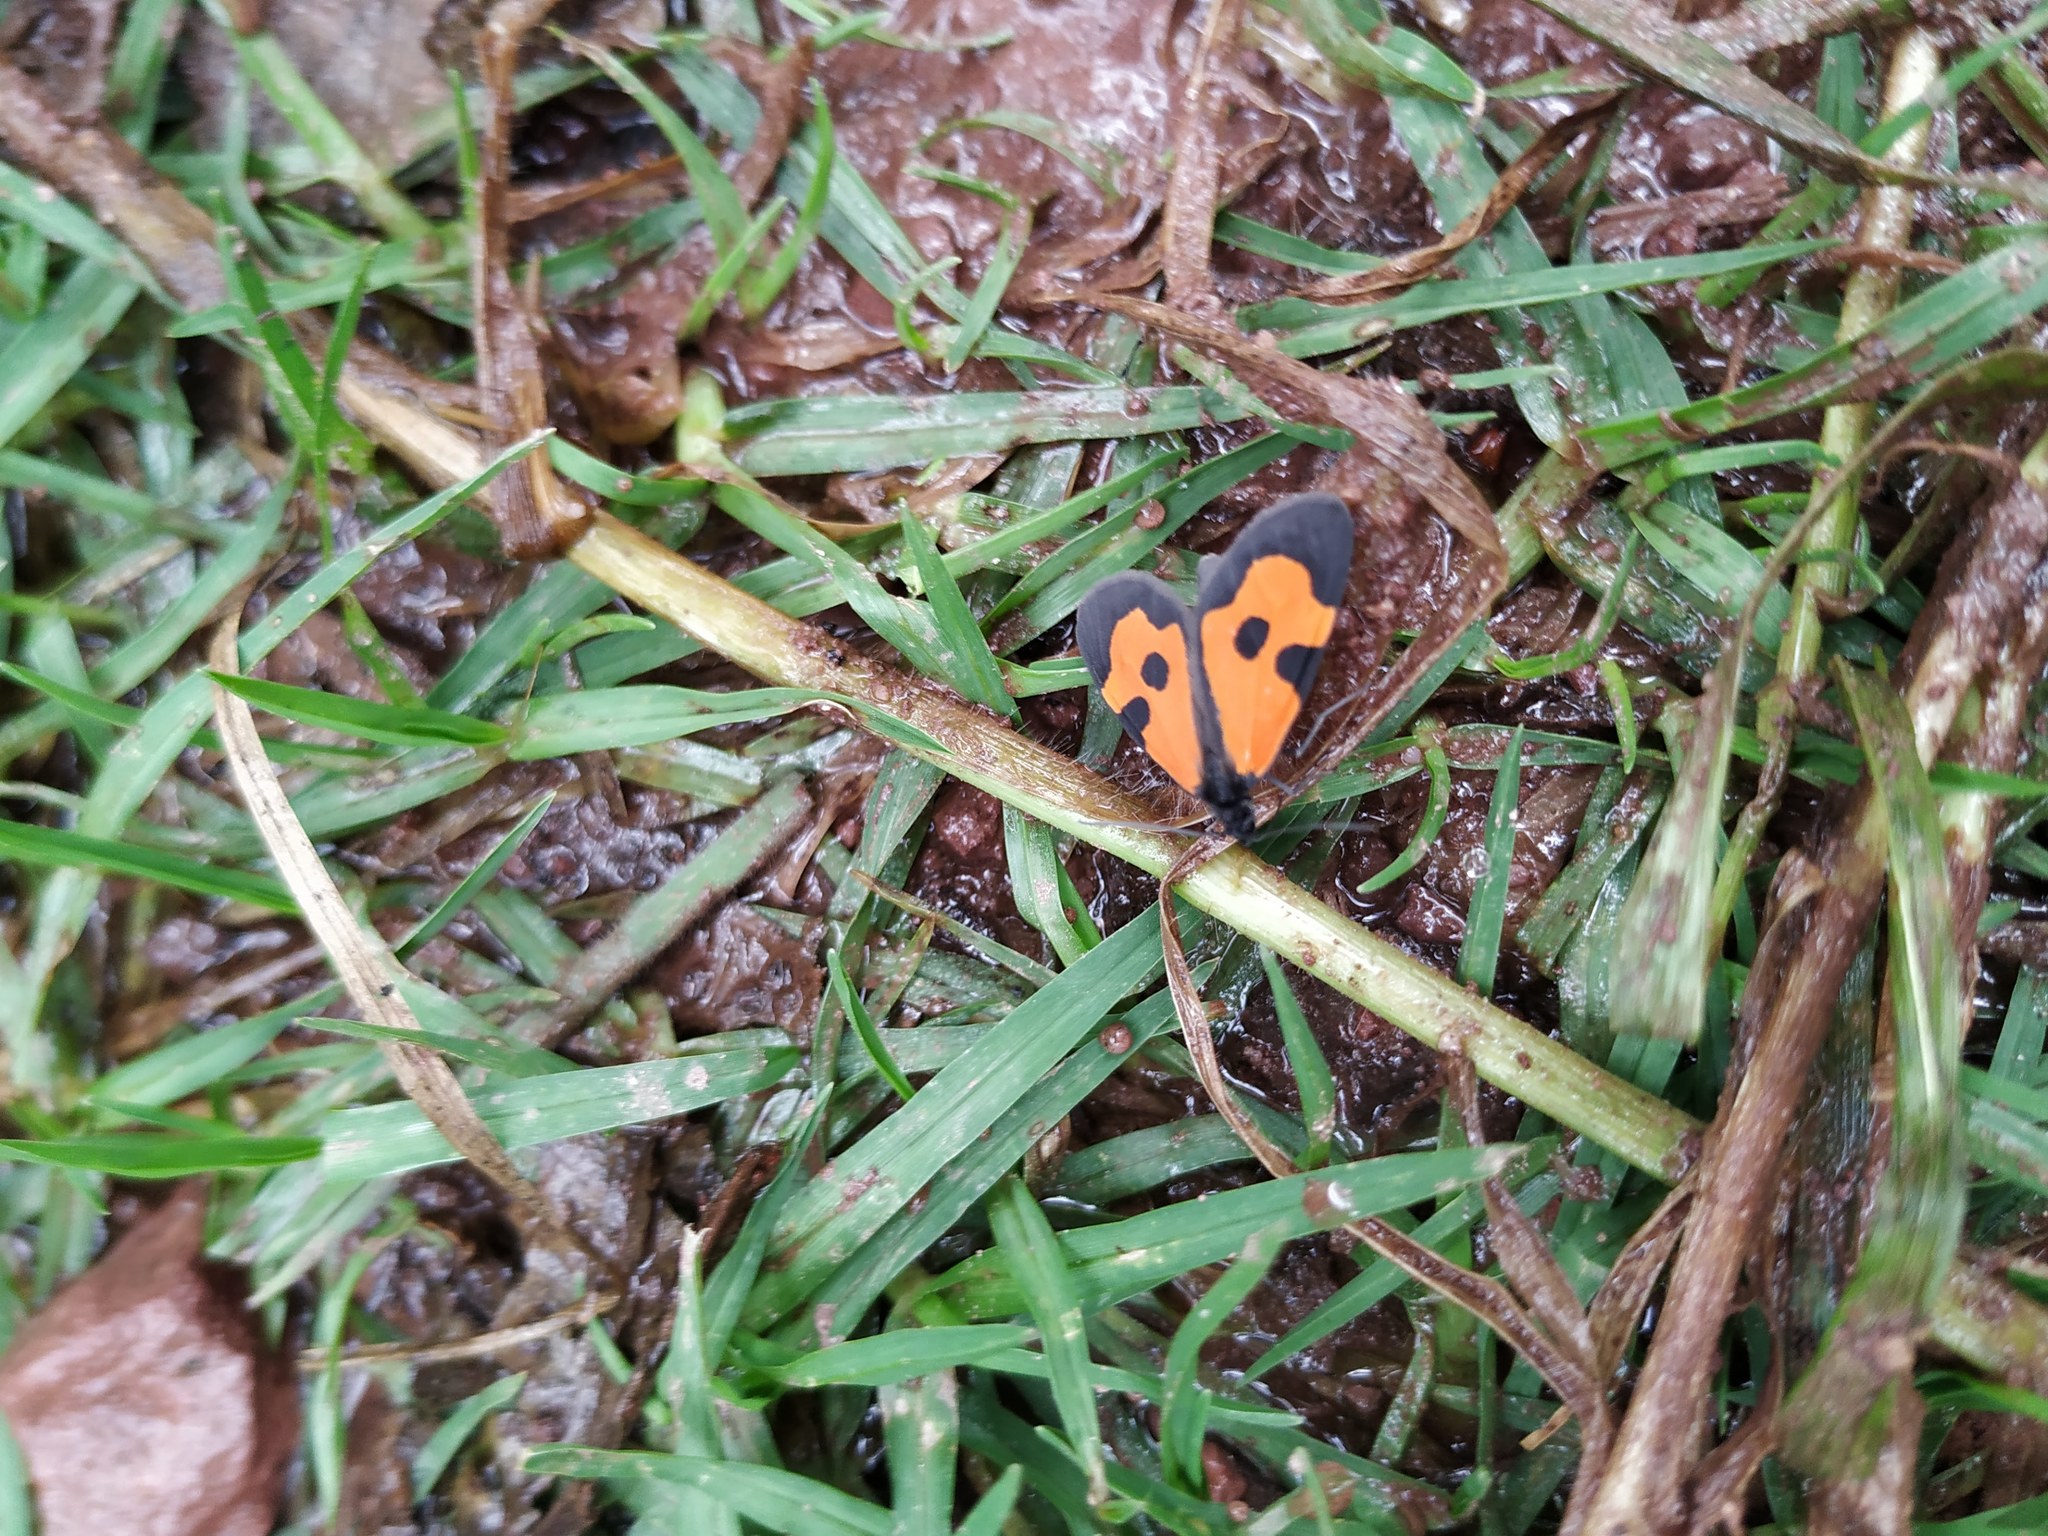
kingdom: Animalia
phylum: Arthropoda
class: Insecta
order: Lepidoptera
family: Geometridae
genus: Eudule
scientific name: Eudule bimacula
